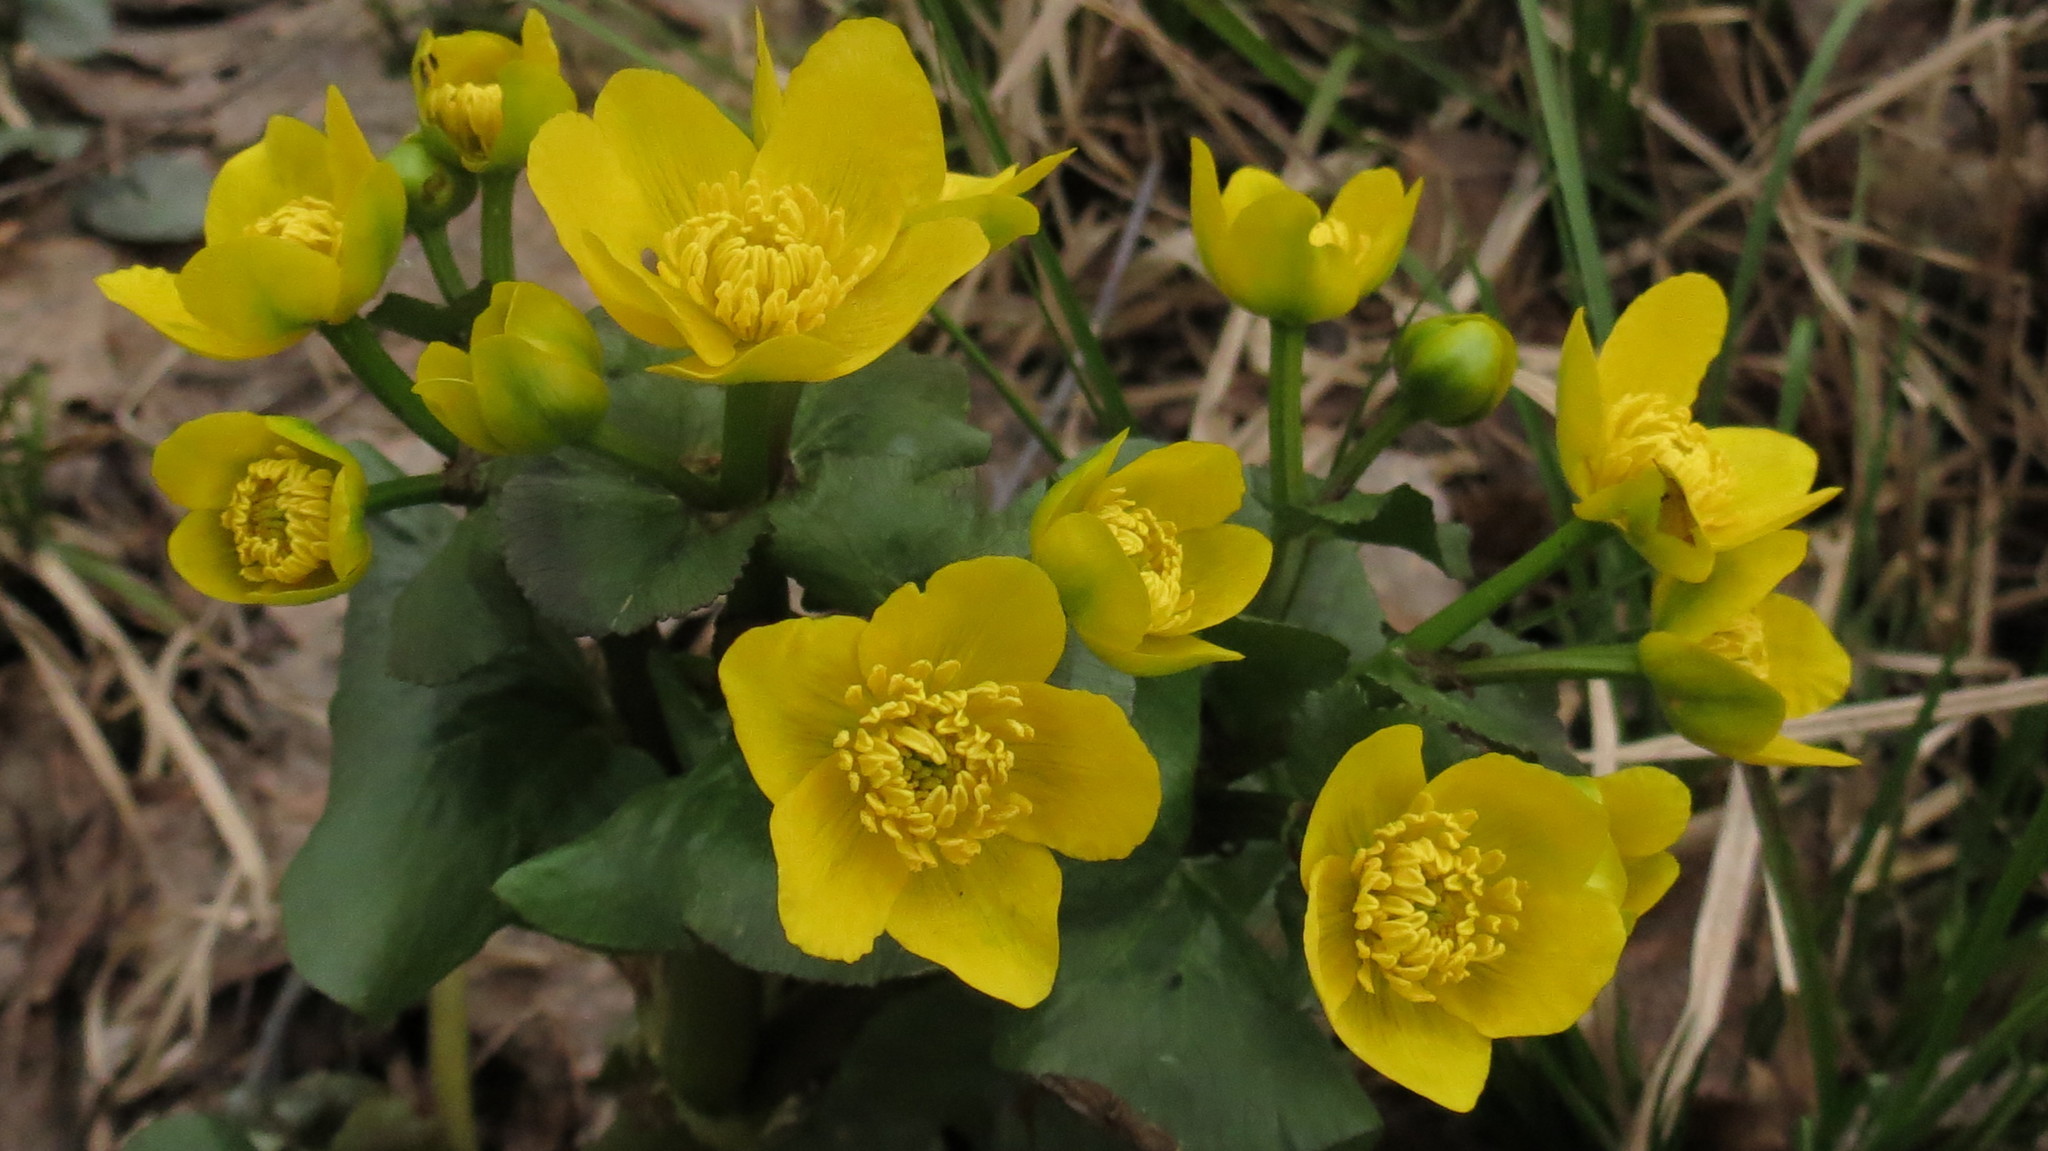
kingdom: Plantae
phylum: Tracheophyta
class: Magnoliopsida
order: Ranunculales
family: Ranunculaceae
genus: Caltha
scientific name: Caltha palustris
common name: Marsh marigold
